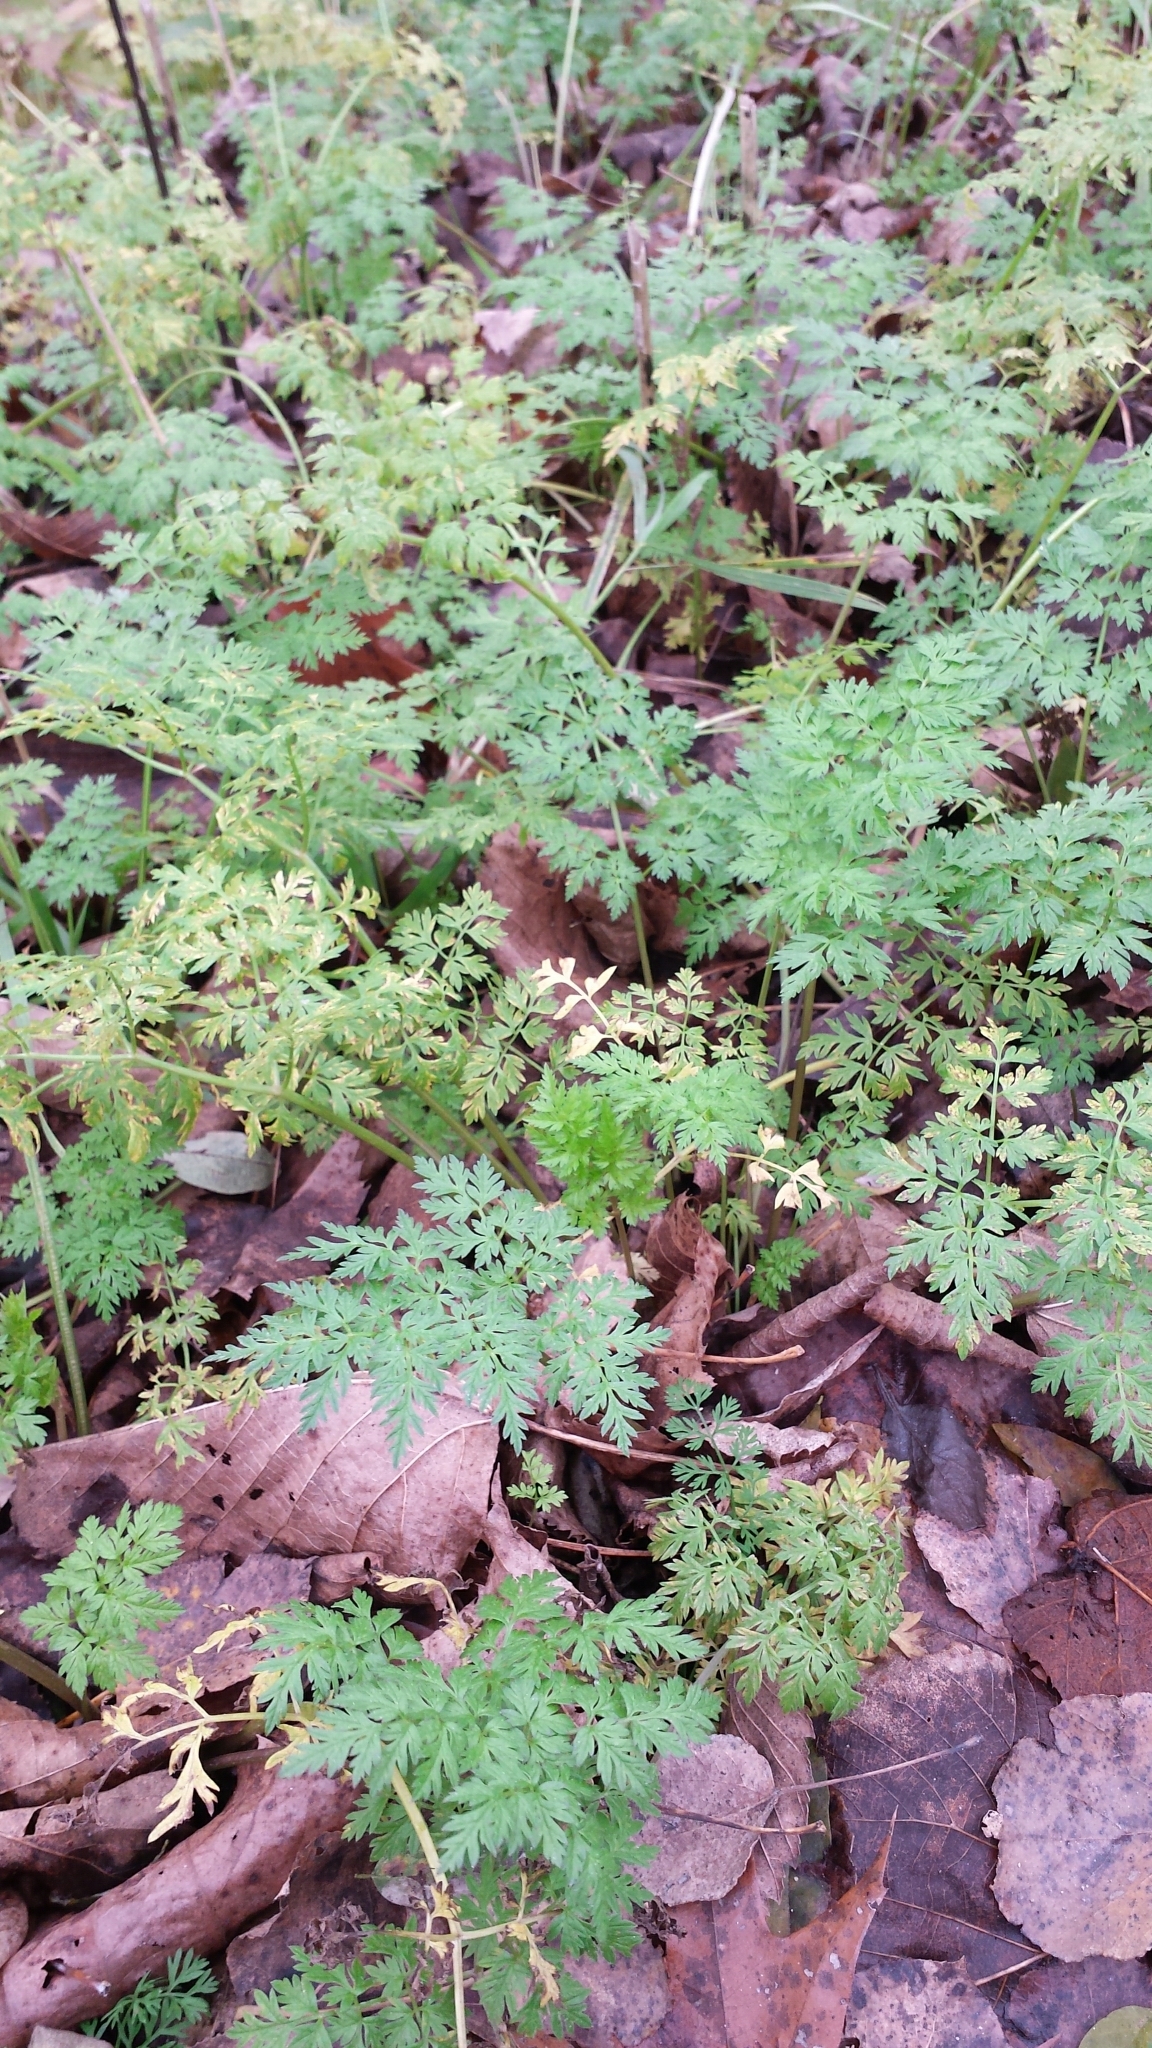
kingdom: Plantae
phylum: Tracheophyta
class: Magnoliopsida
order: Apiales
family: Apiaceae
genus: Anthriscus
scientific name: Anthriscus sylvestris
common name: Cow parsley
